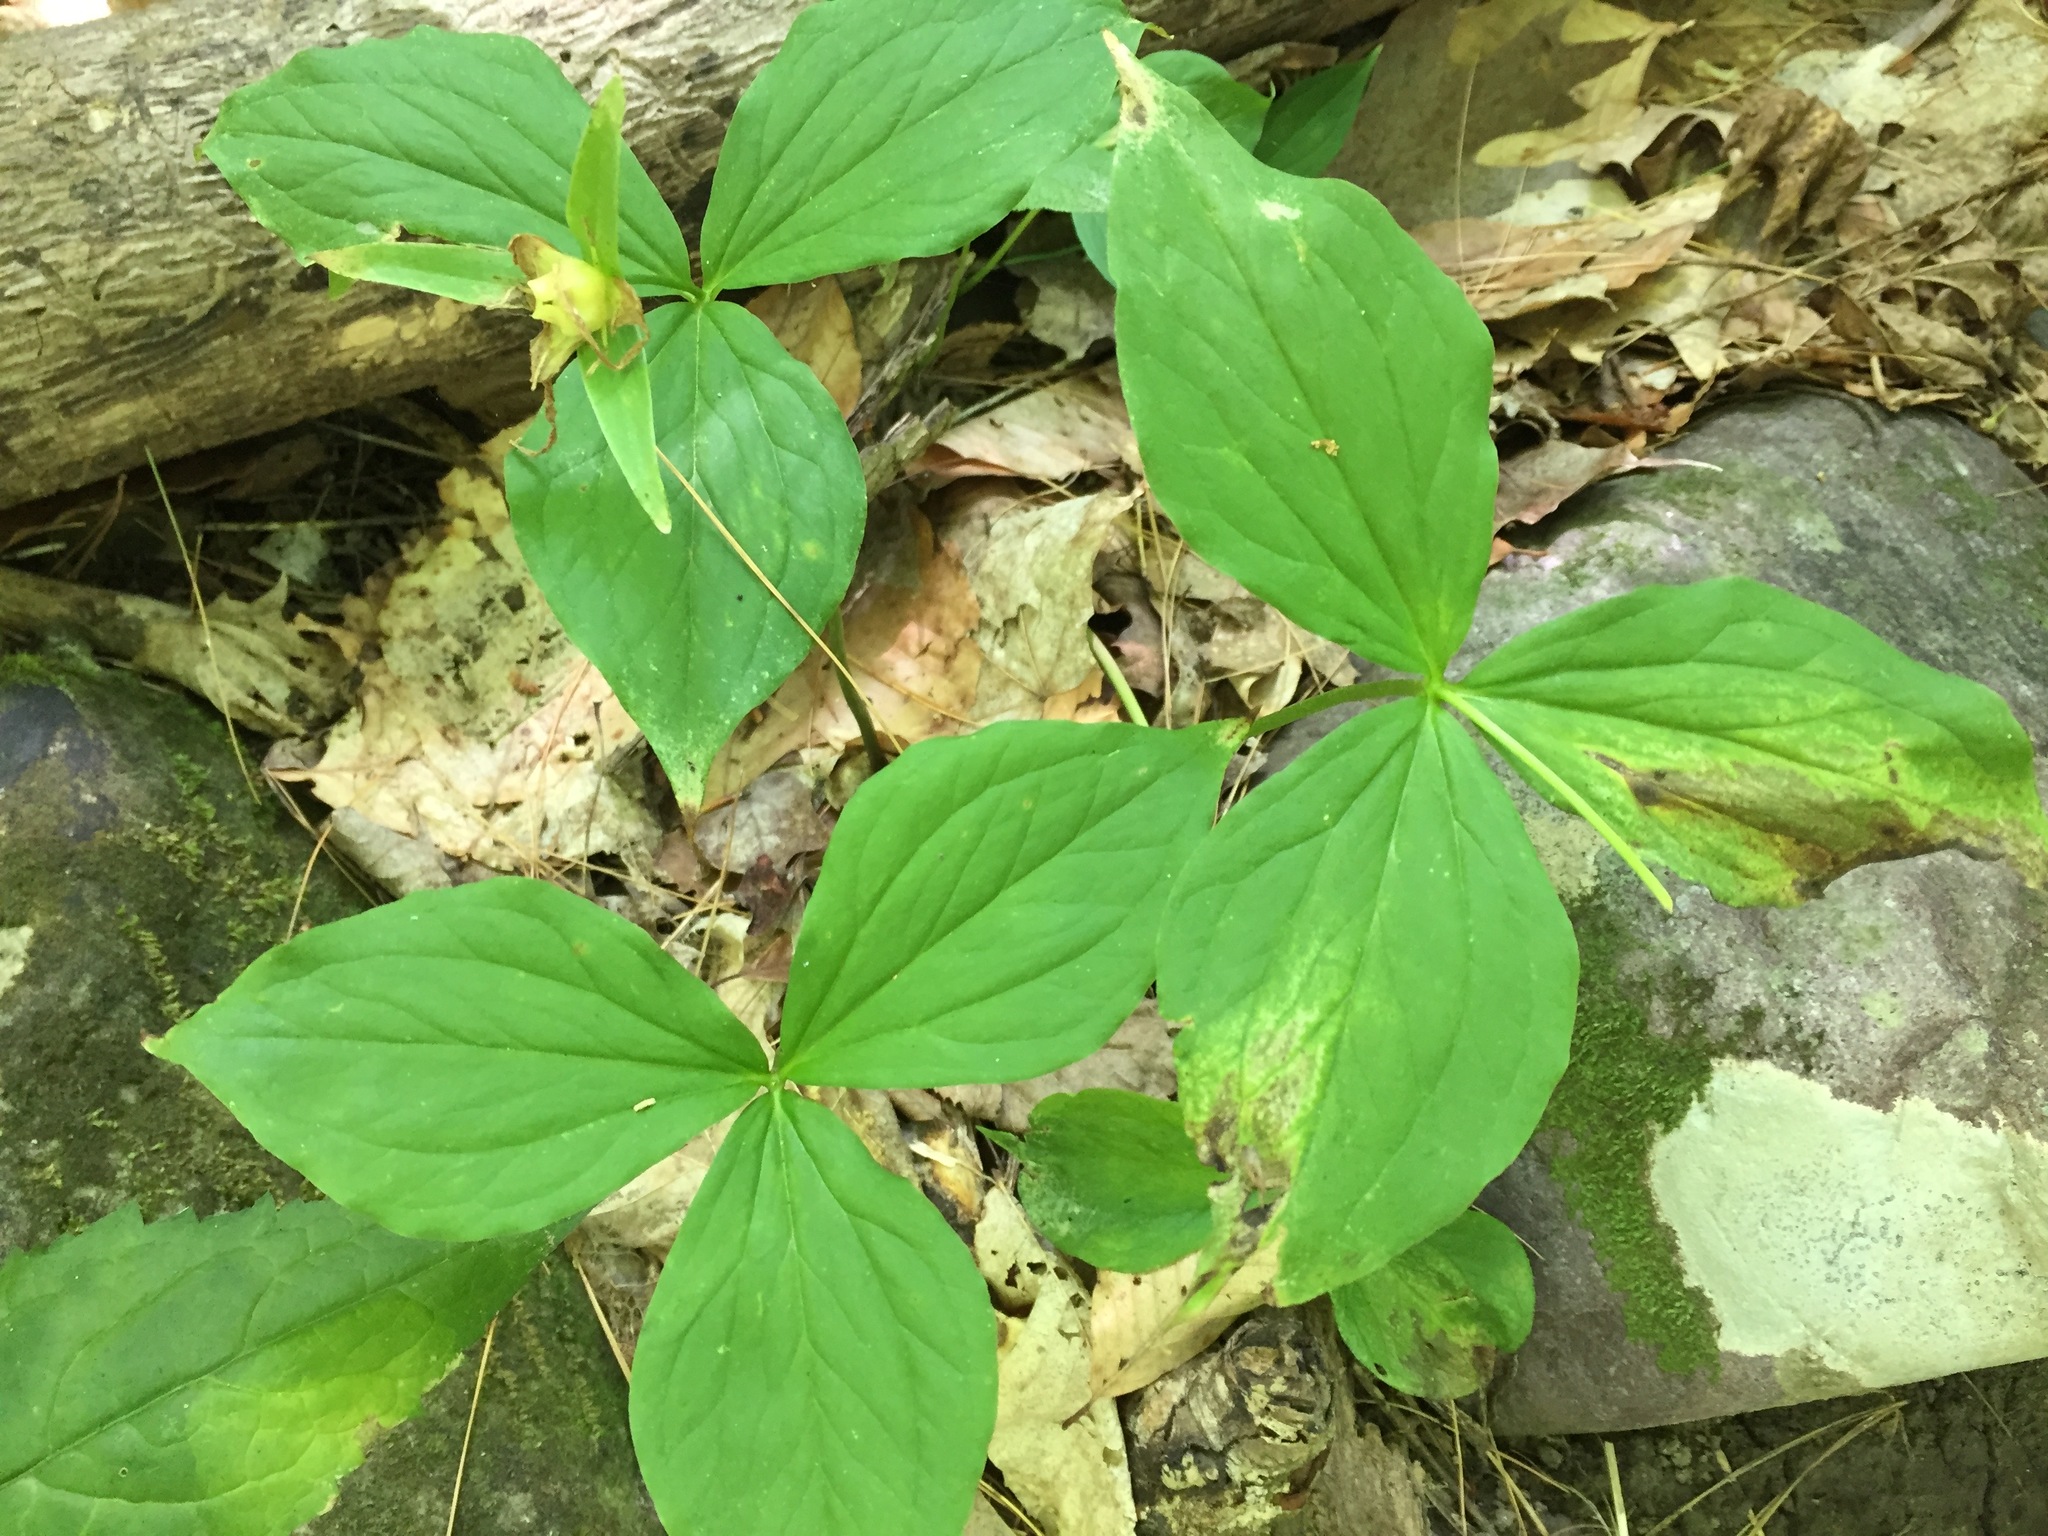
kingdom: Plantae
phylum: Tracheophyta
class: Liliopsida
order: Liliales
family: Melanthiaceae
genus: Trillium
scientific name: Trillium grandiflorum
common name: Great white trillium
